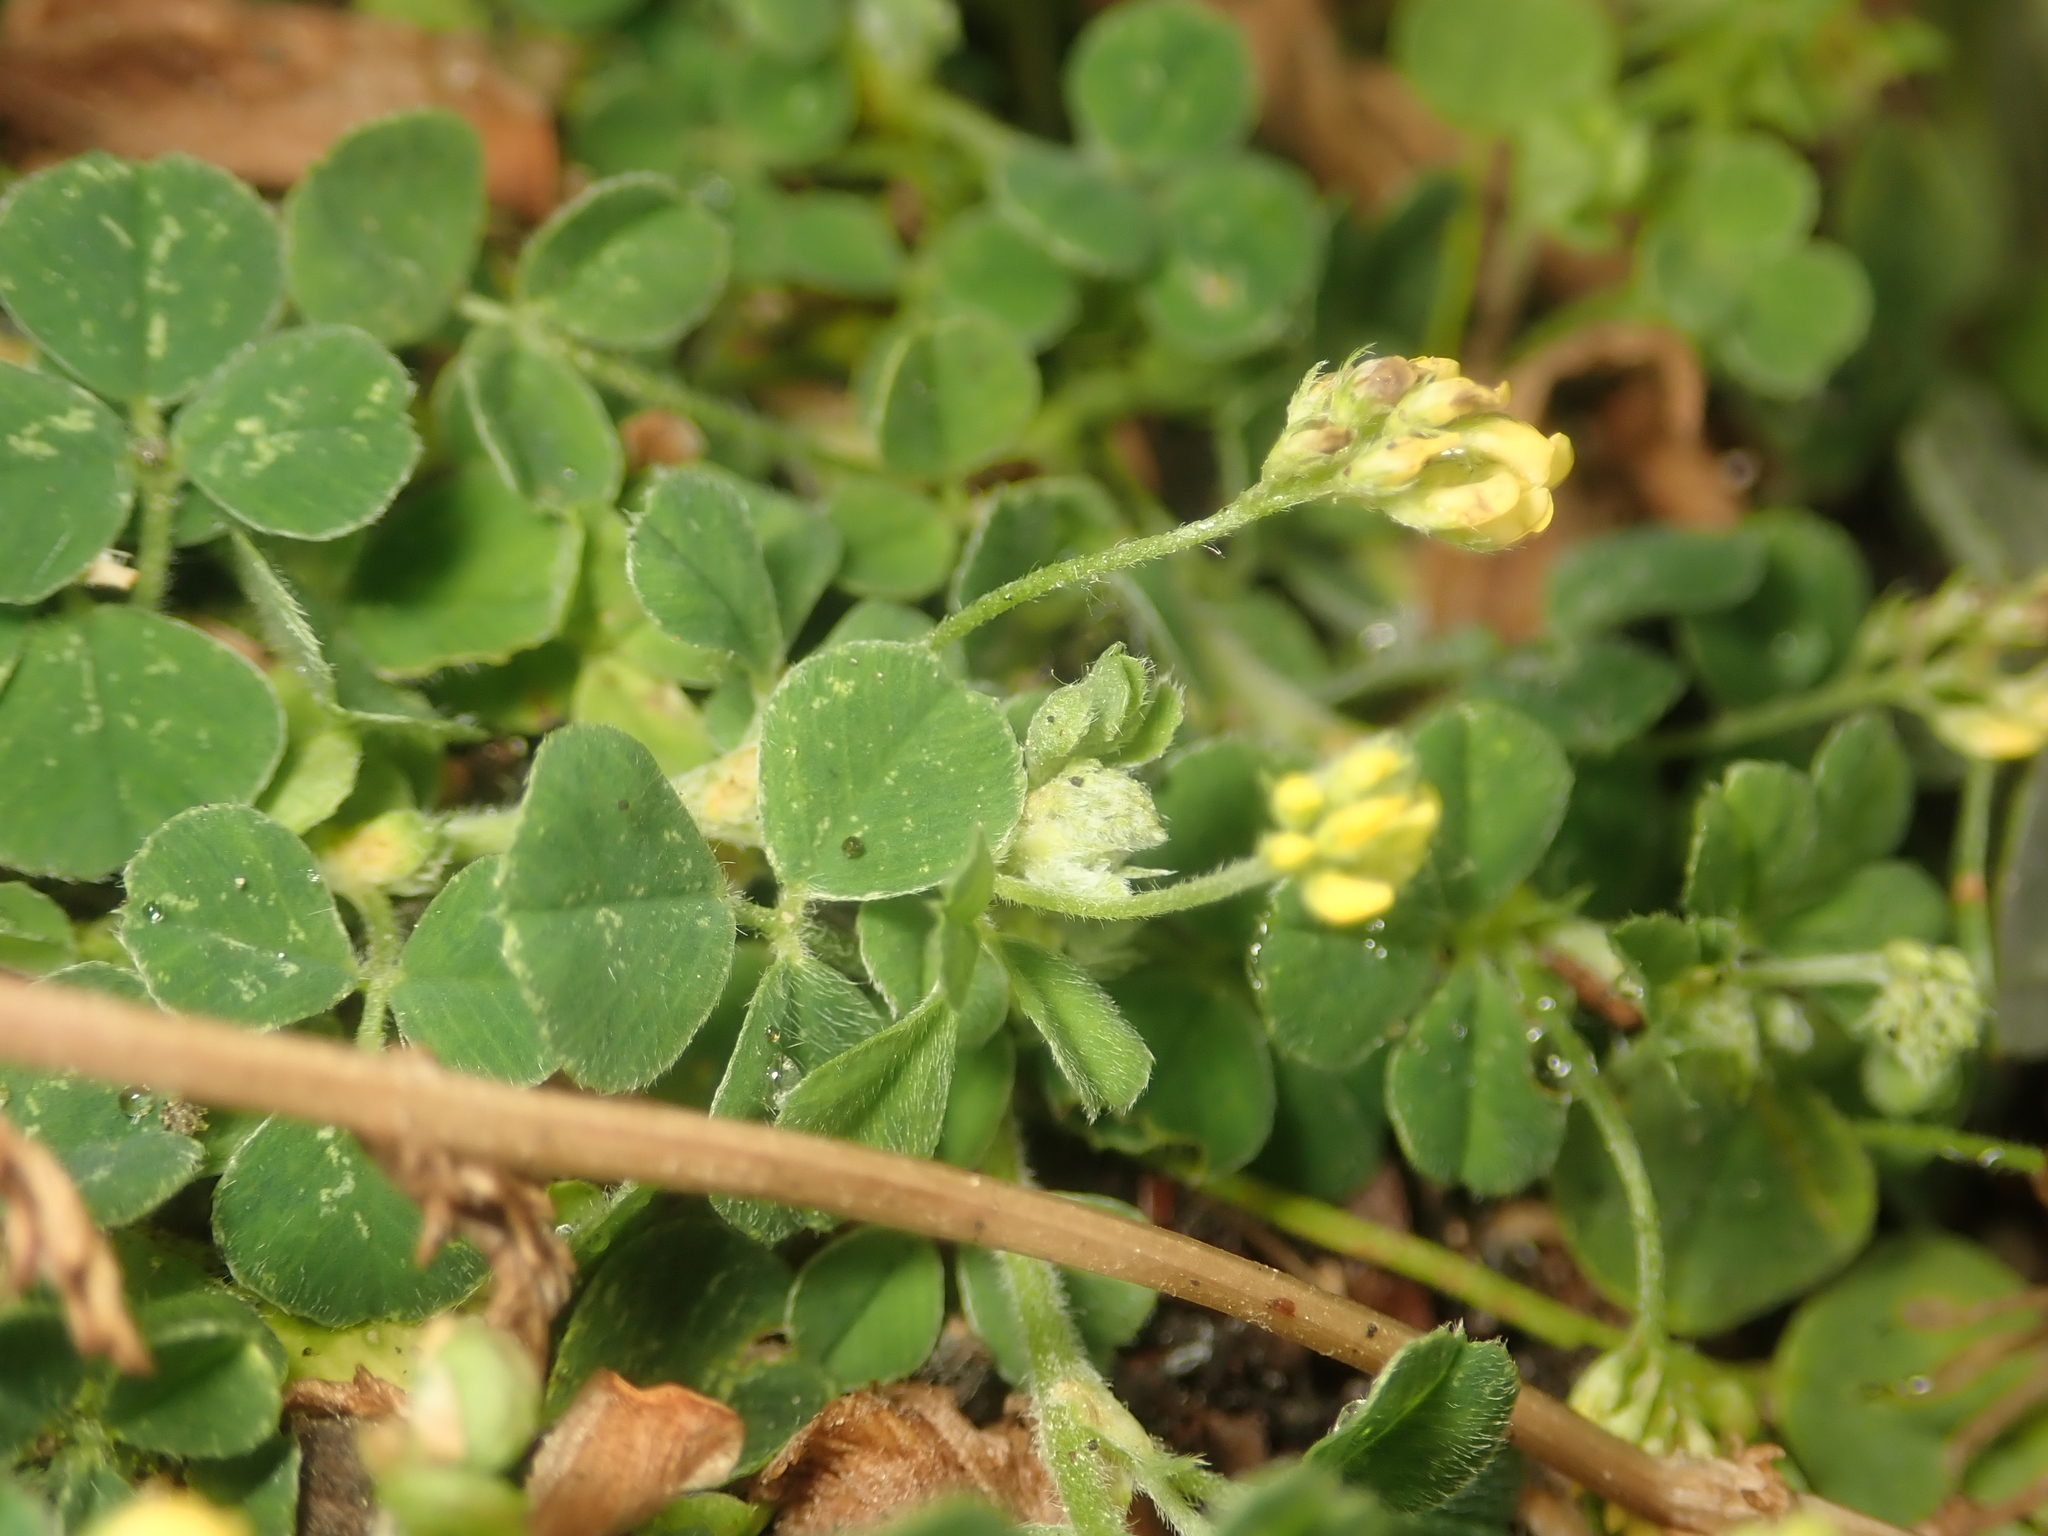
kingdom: Plantae
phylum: Tracheophyta
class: Magnoliopsida
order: Fabales
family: Fabaceae
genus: Medicago
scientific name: Medicago lupulina
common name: Black medick
